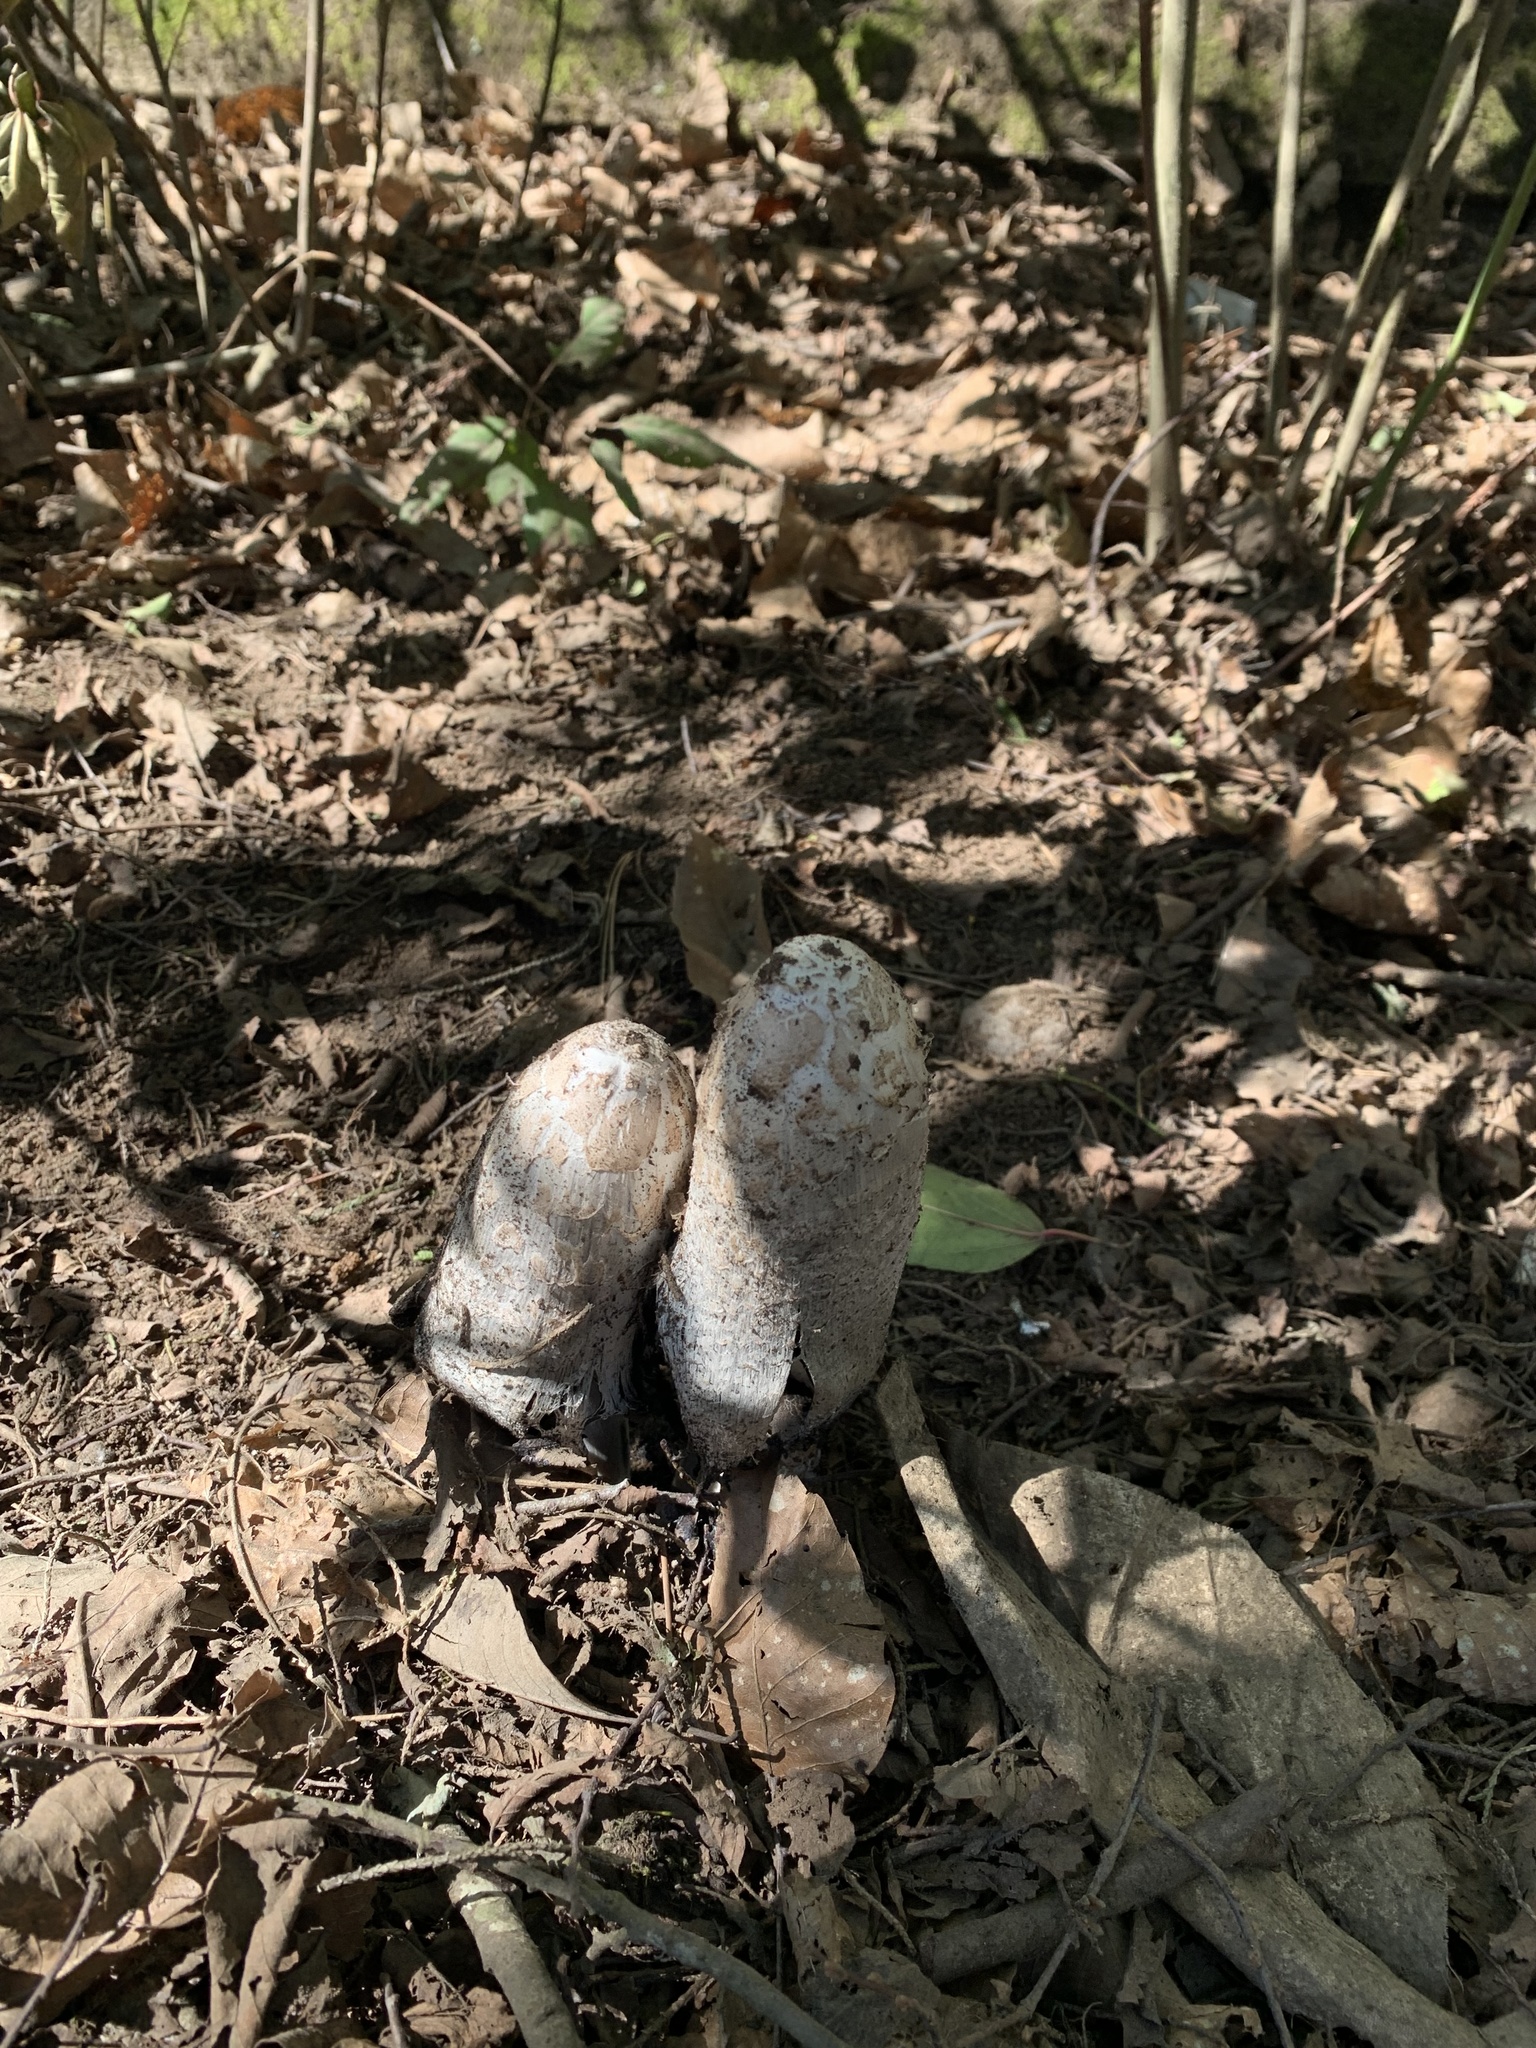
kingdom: Fungi
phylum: Basidiomycota
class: Agaricomycetes
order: Agaricales
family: Agaricaceae
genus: Coprinus
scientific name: Coprinus comatus
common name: Lawyer's wig
